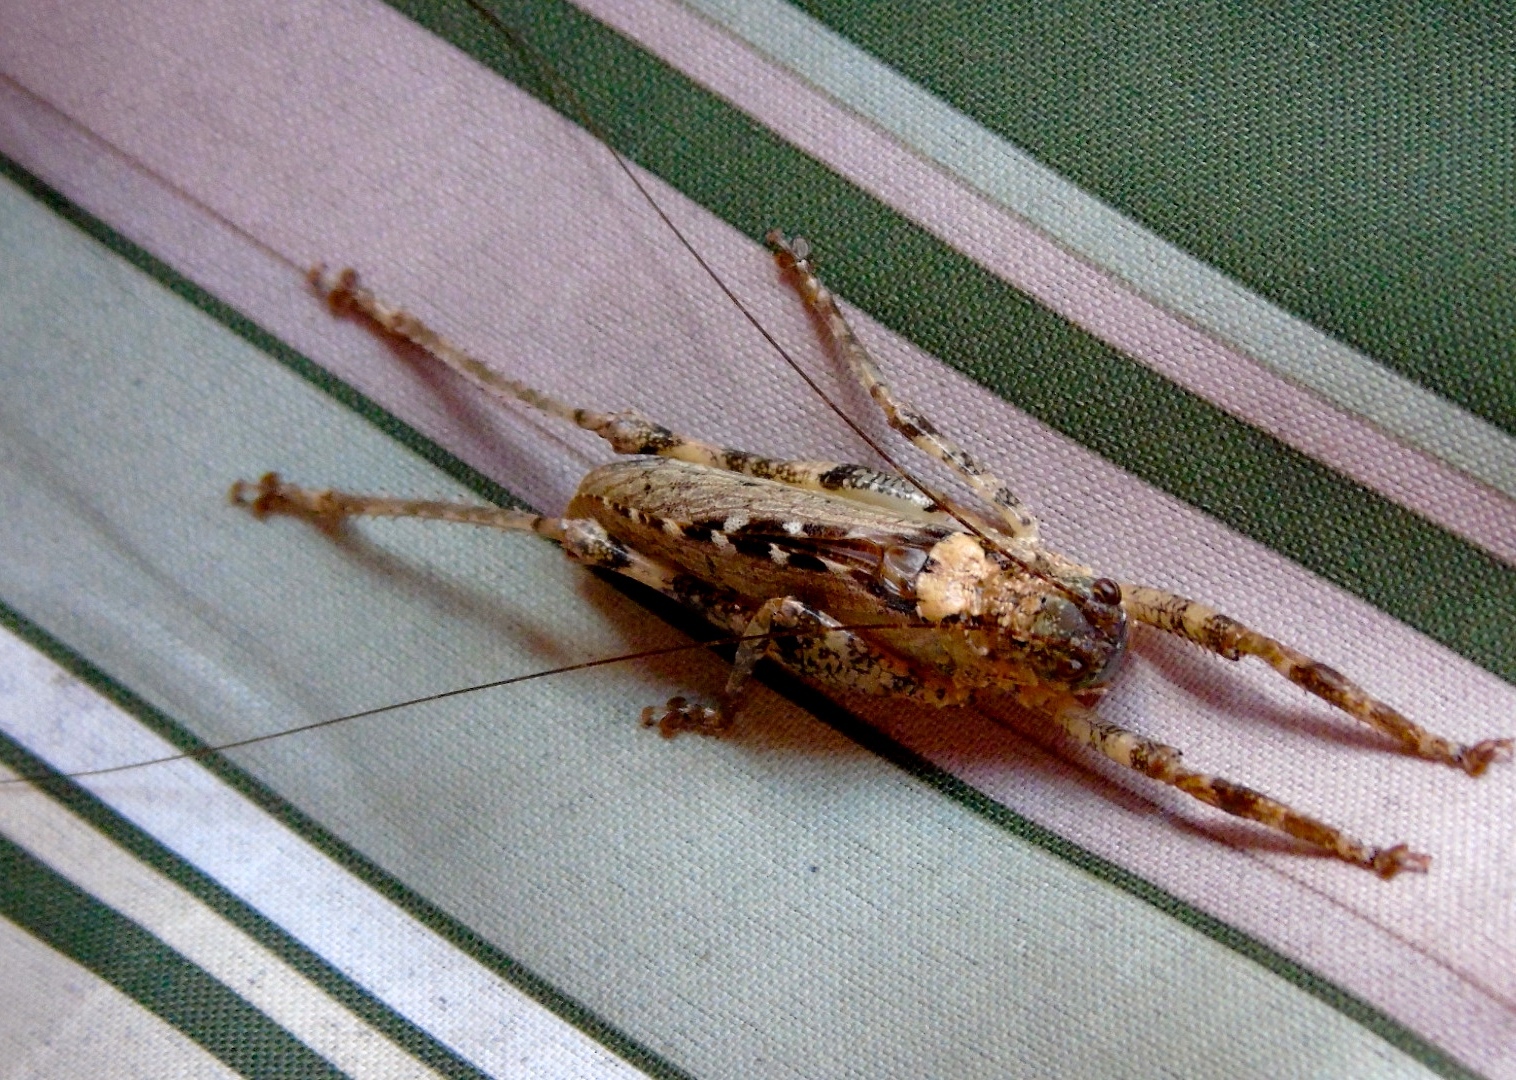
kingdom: Animalia
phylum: Arthropoda
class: Insecta
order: Orthoptera
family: Tettigoniidae
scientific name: Tettigoniidae
